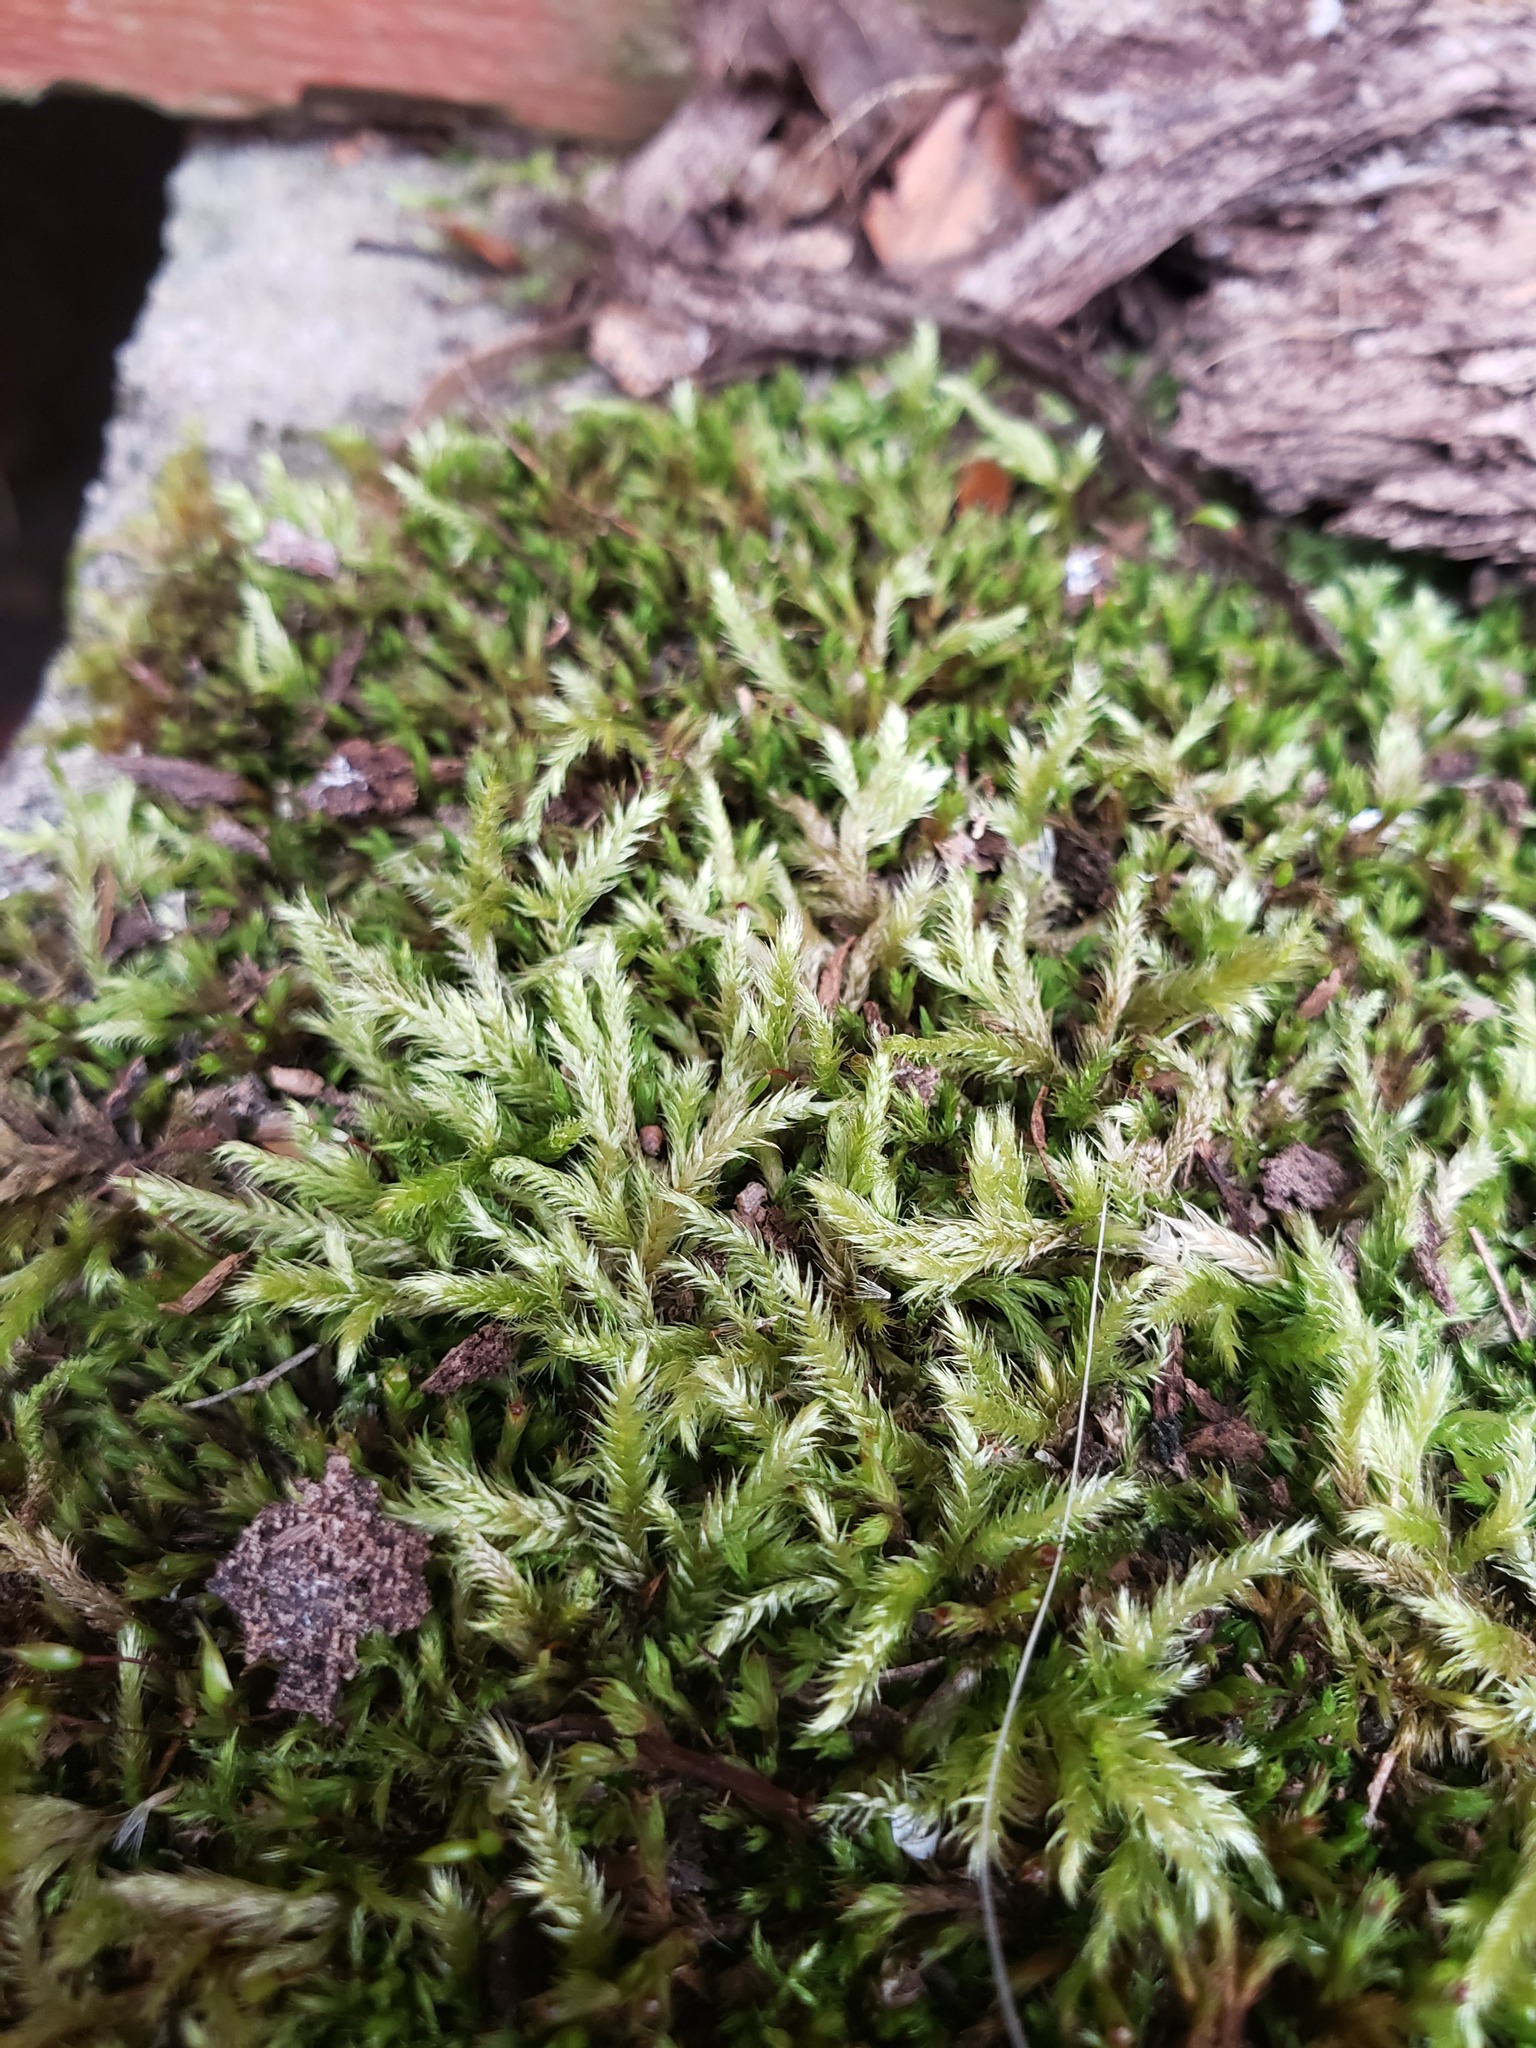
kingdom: Plantae
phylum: Bryophyta
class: Bryopsida
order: Hypnales
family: Callicladiaceae
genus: Callicladium
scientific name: Callicladium haldanianum
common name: Beautiful branch moss
